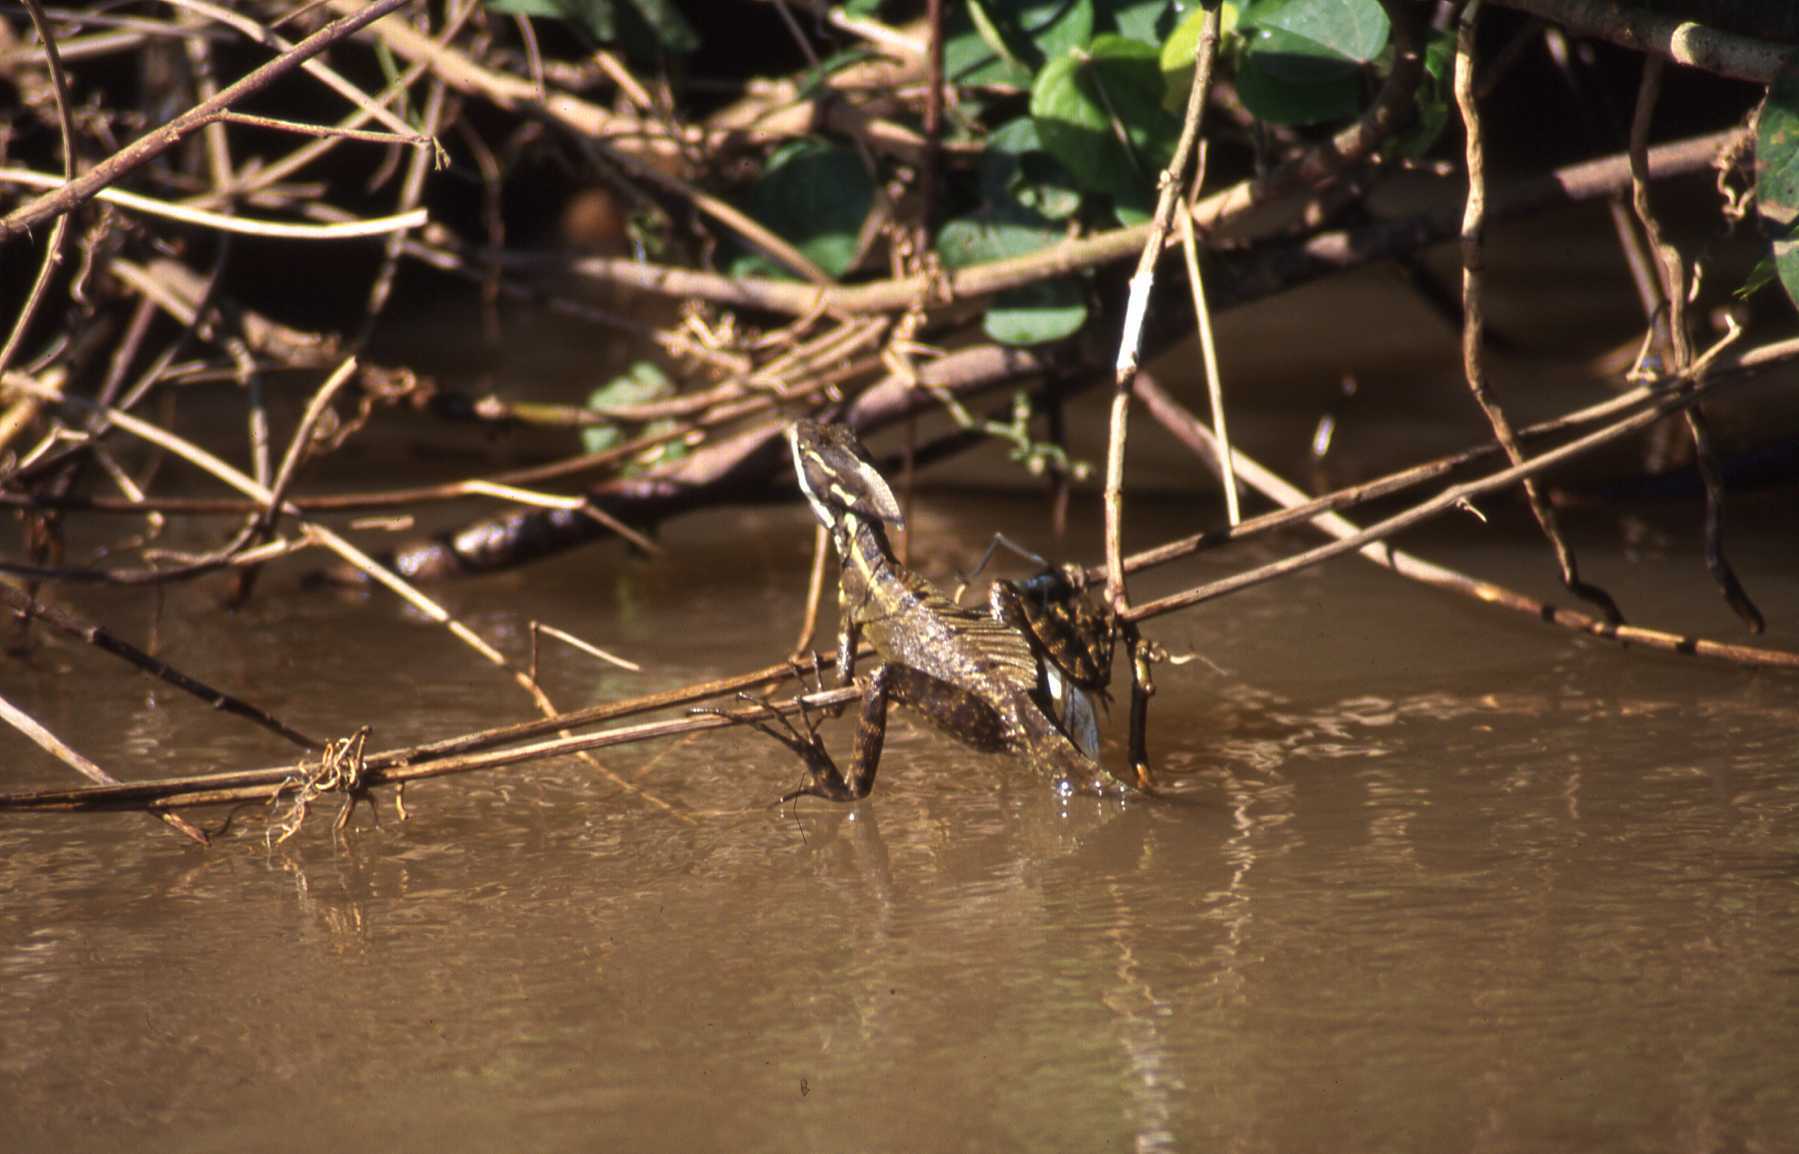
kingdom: Animalia
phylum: Chordata
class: Squamata
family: Corytophanidae
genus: Basiliscus
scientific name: Basiliscus basiliscus
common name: Common basilisk
